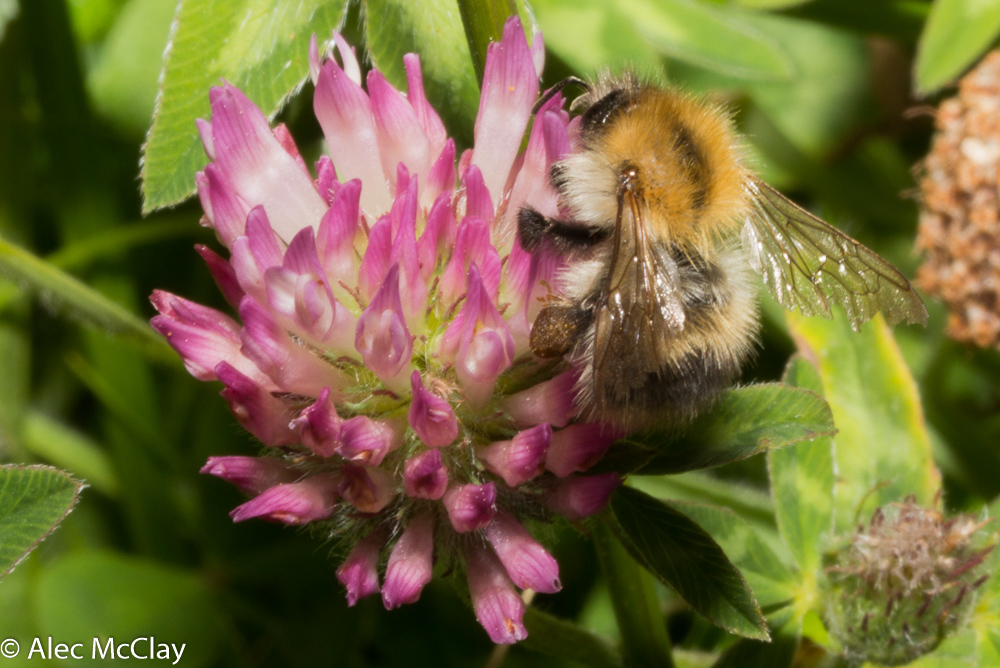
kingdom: Animalia
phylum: Arthropoda
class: Insecta
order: Hymenoptera
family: Apidae
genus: Bombus
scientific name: Bombus pascuorum
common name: Common carder bee
